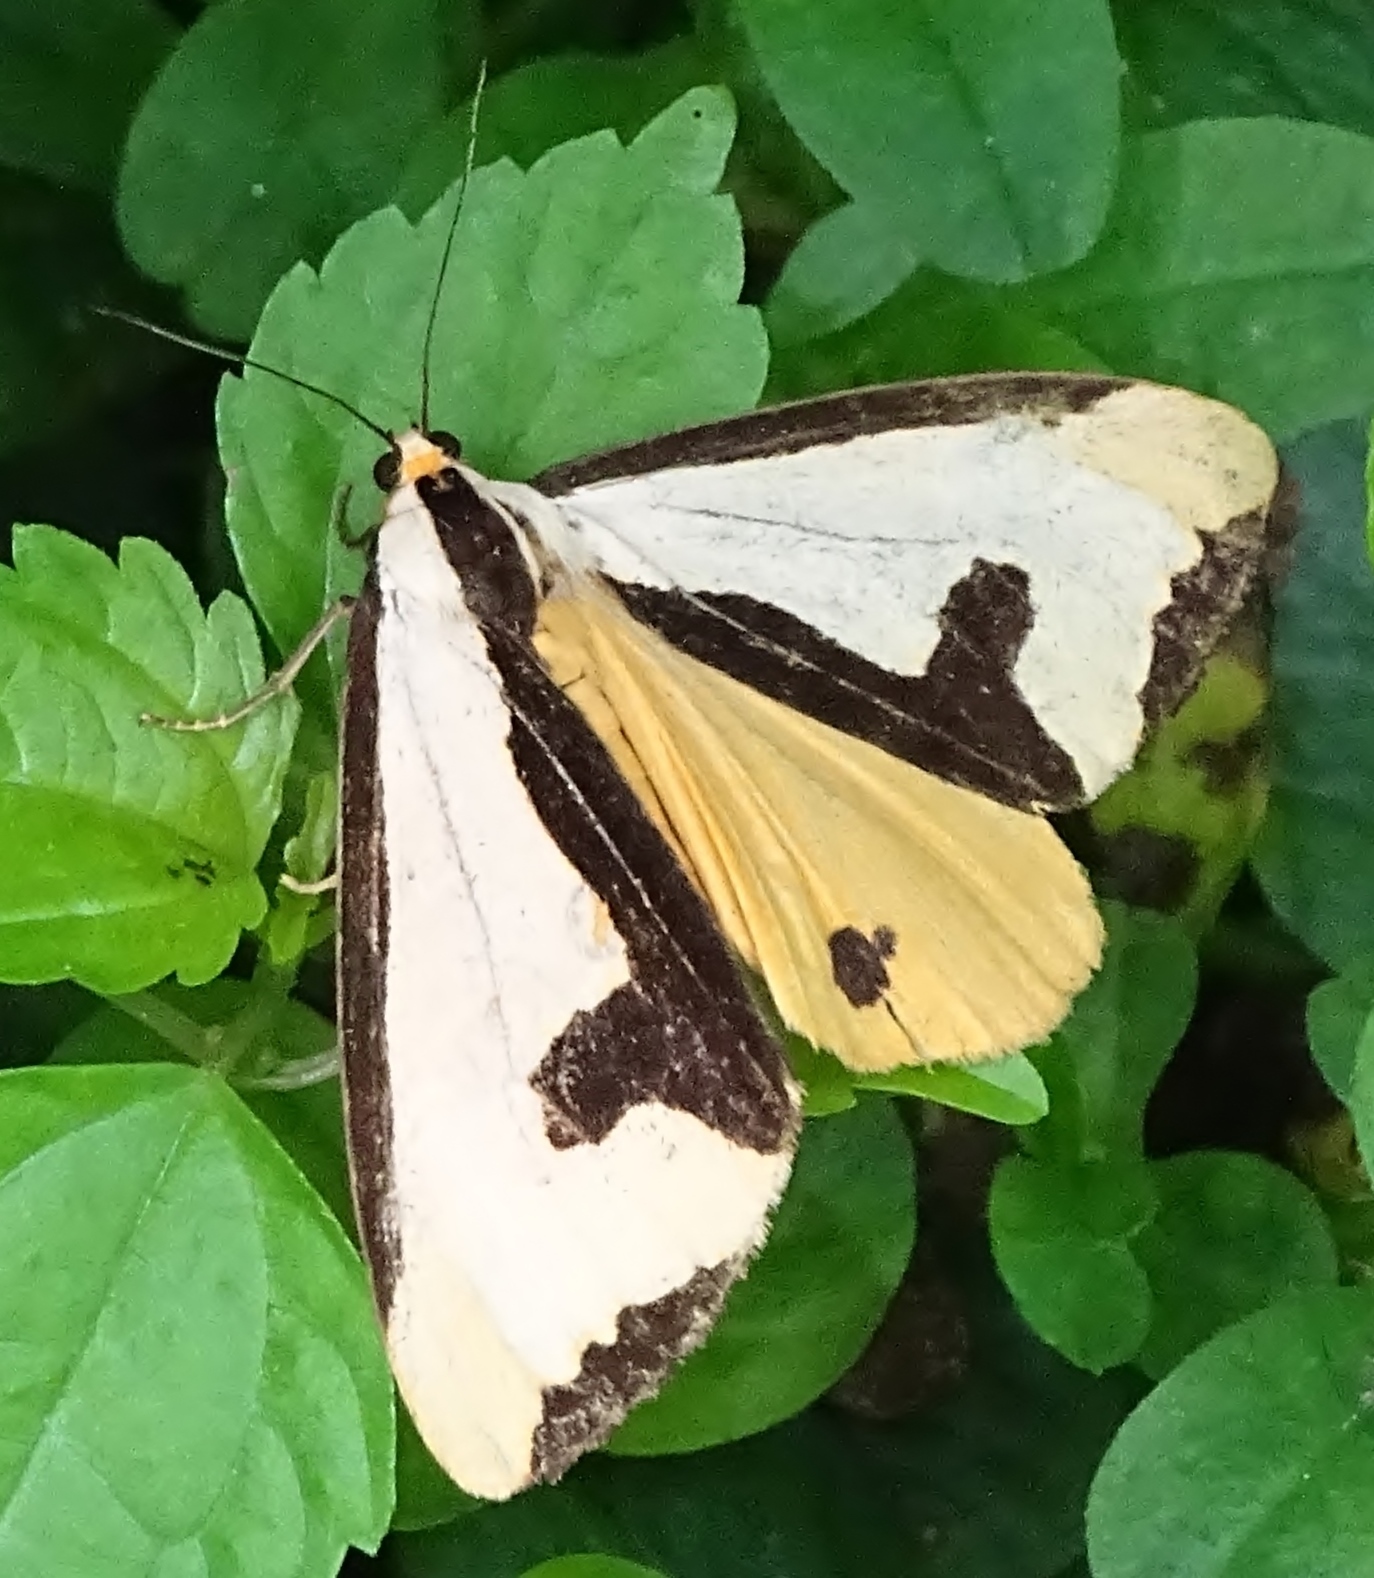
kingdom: Animalia
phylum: Arthropoda
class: Insecta
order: Lepidoptera
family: Erebidae
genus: Haploa
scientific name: Haploa clymene
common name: Clymene moth
